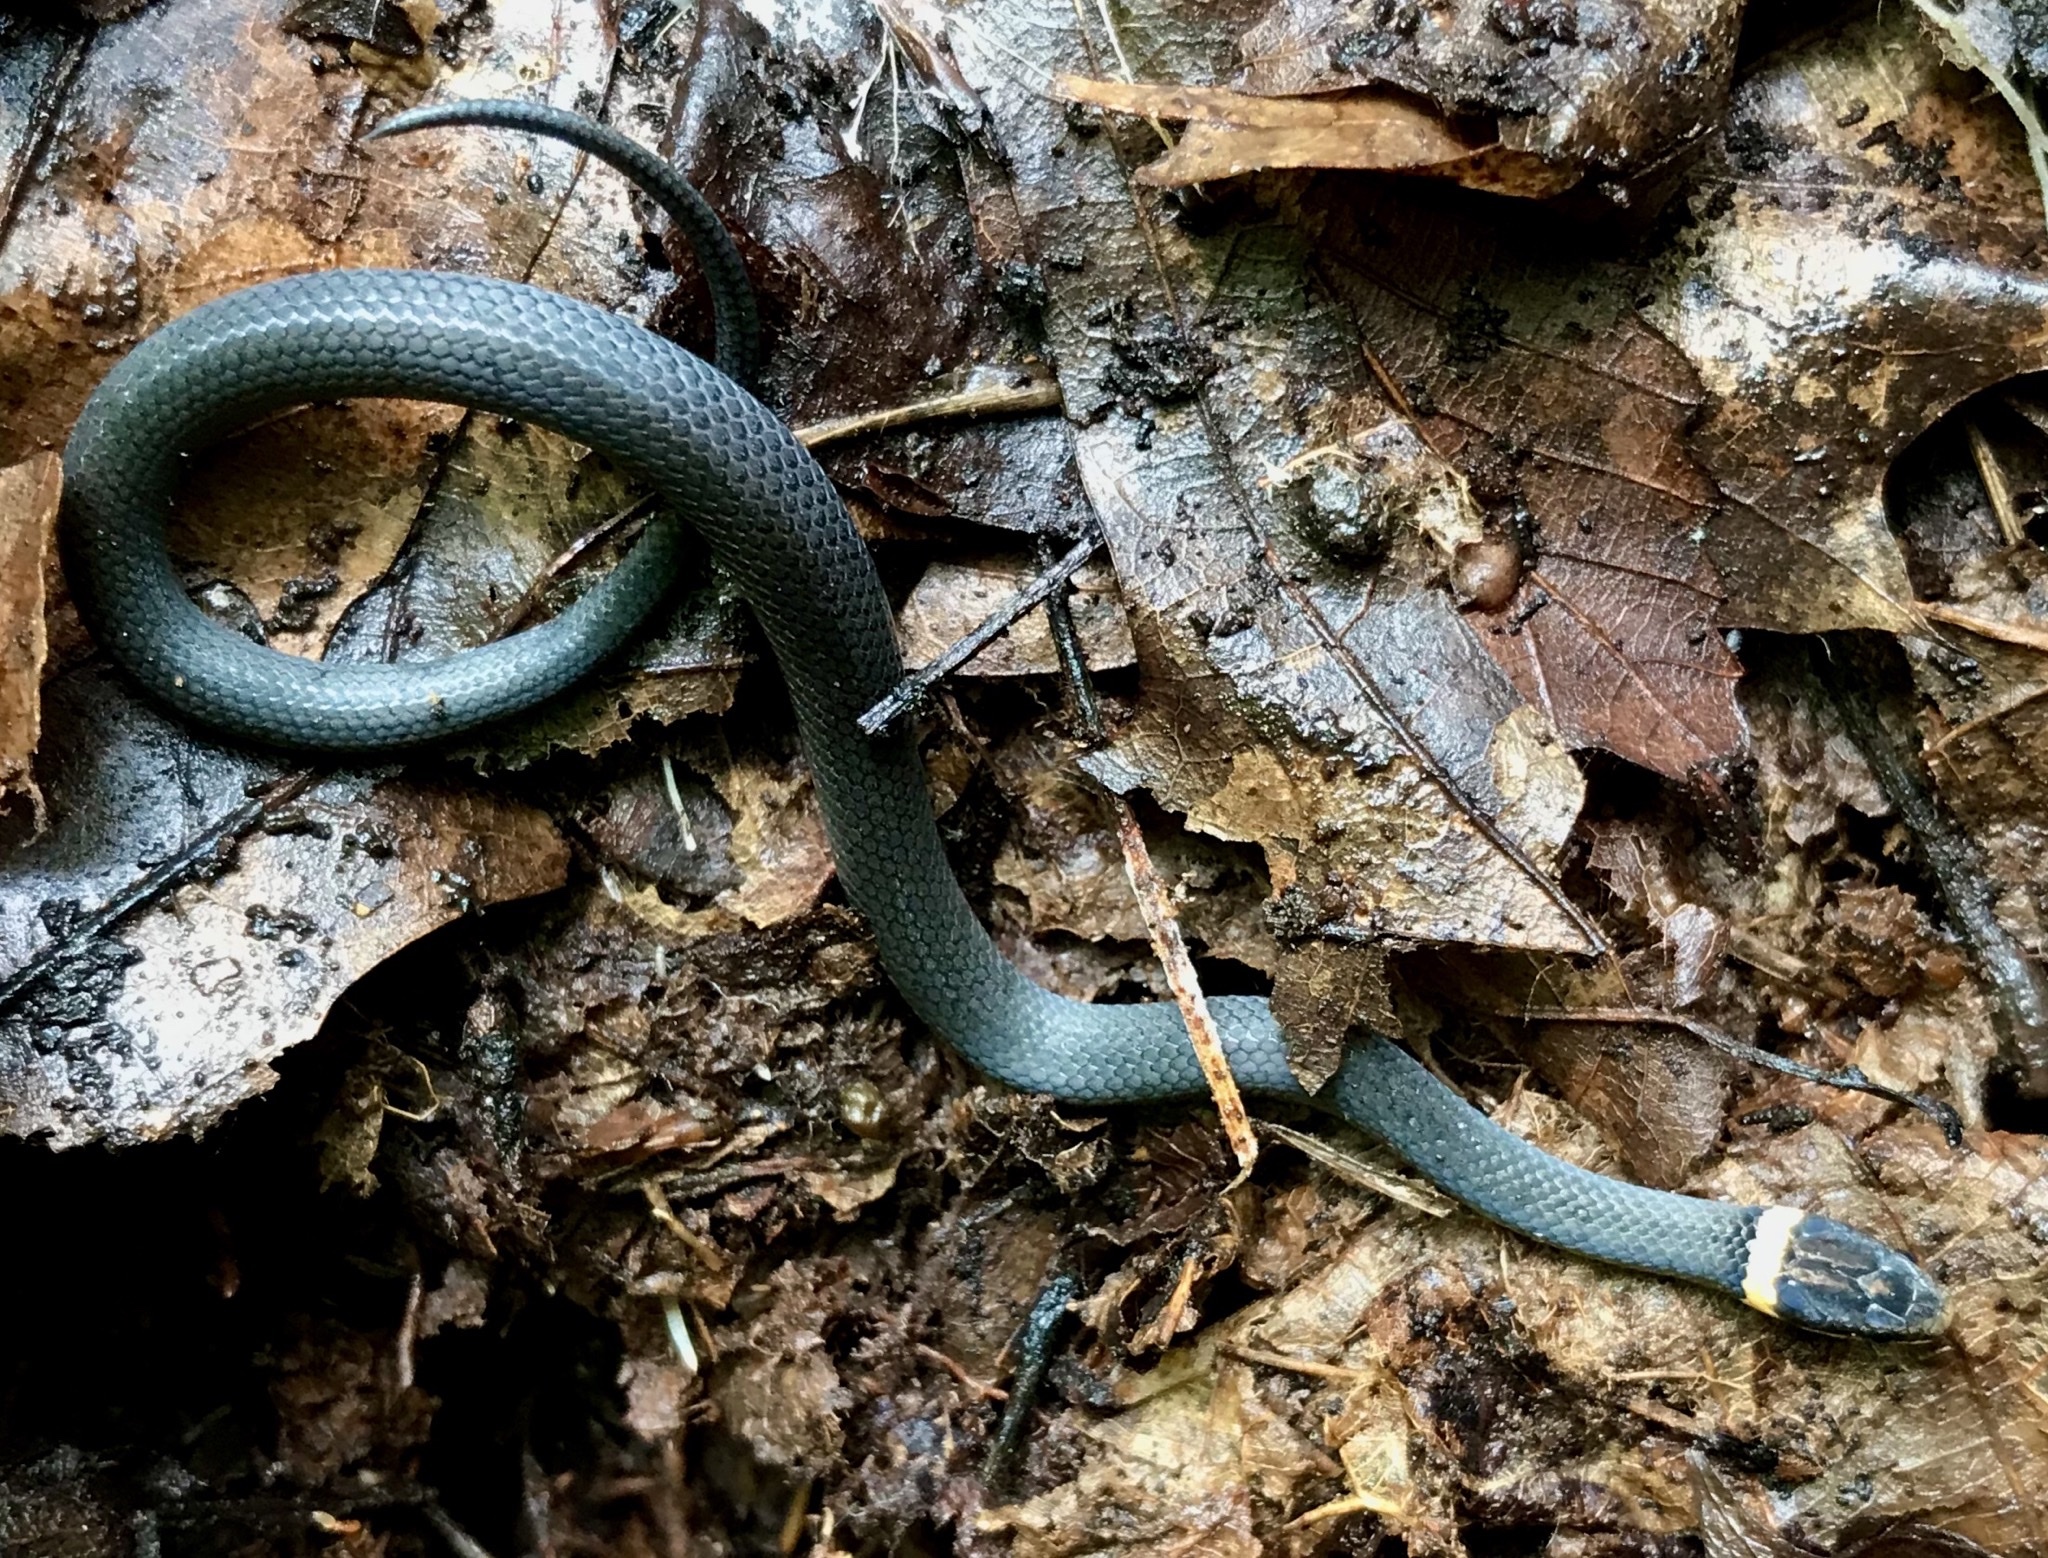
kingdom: Animalia
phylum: Chordata
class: Squamata
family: Colubridae
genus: Diadophis
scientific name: Diadophis punctatus
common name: Ringneck snake
